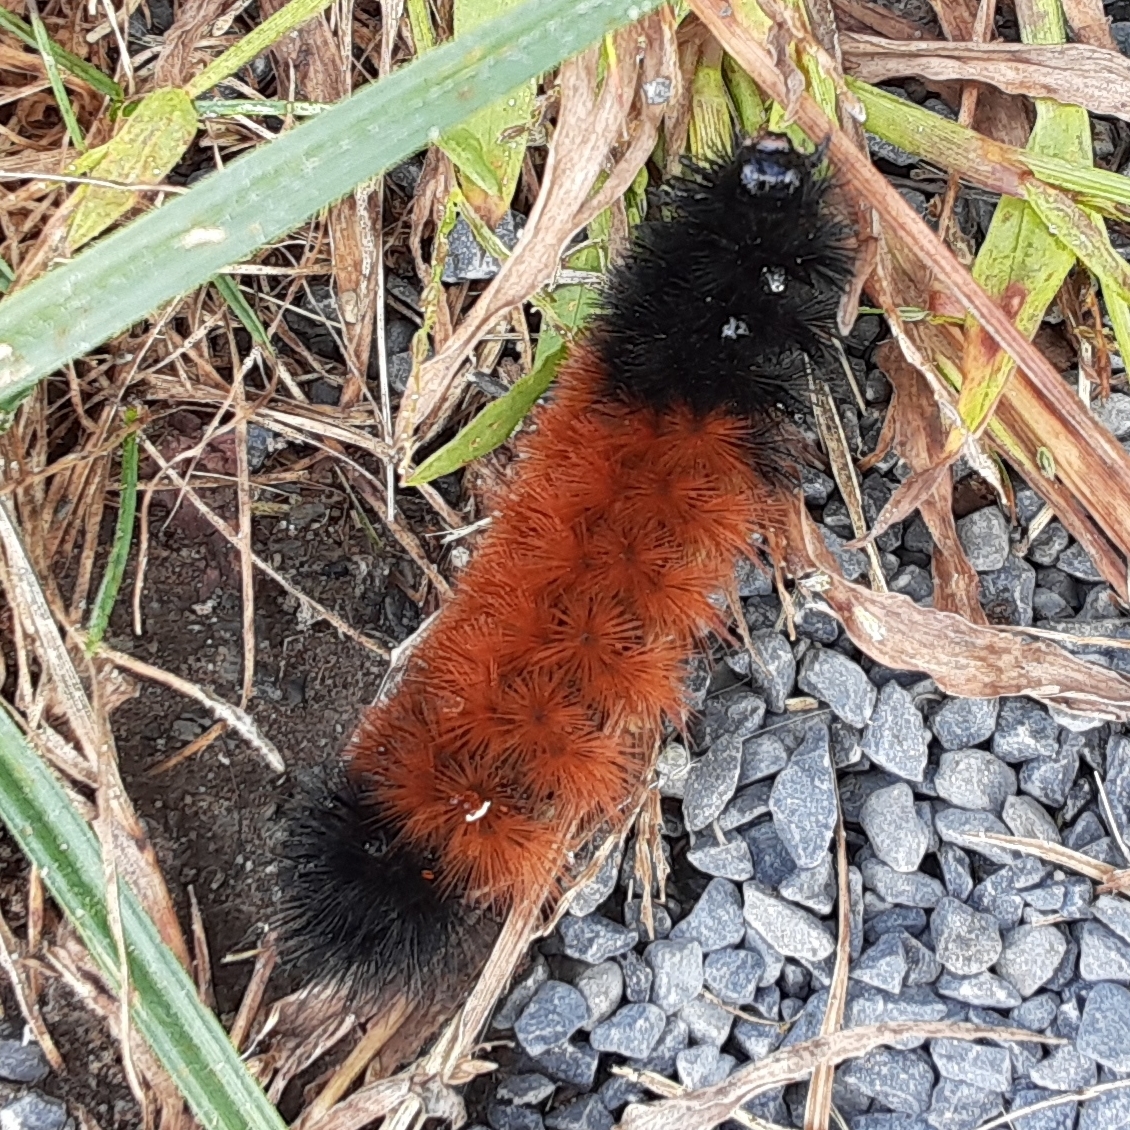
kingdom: Animalia
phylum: Arthropoda
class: Insecta
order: Lepidoptera
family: Erebidae
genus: Pyrrharctia
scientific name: Pyrrharctia isabella
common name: Isabella tiger moth
